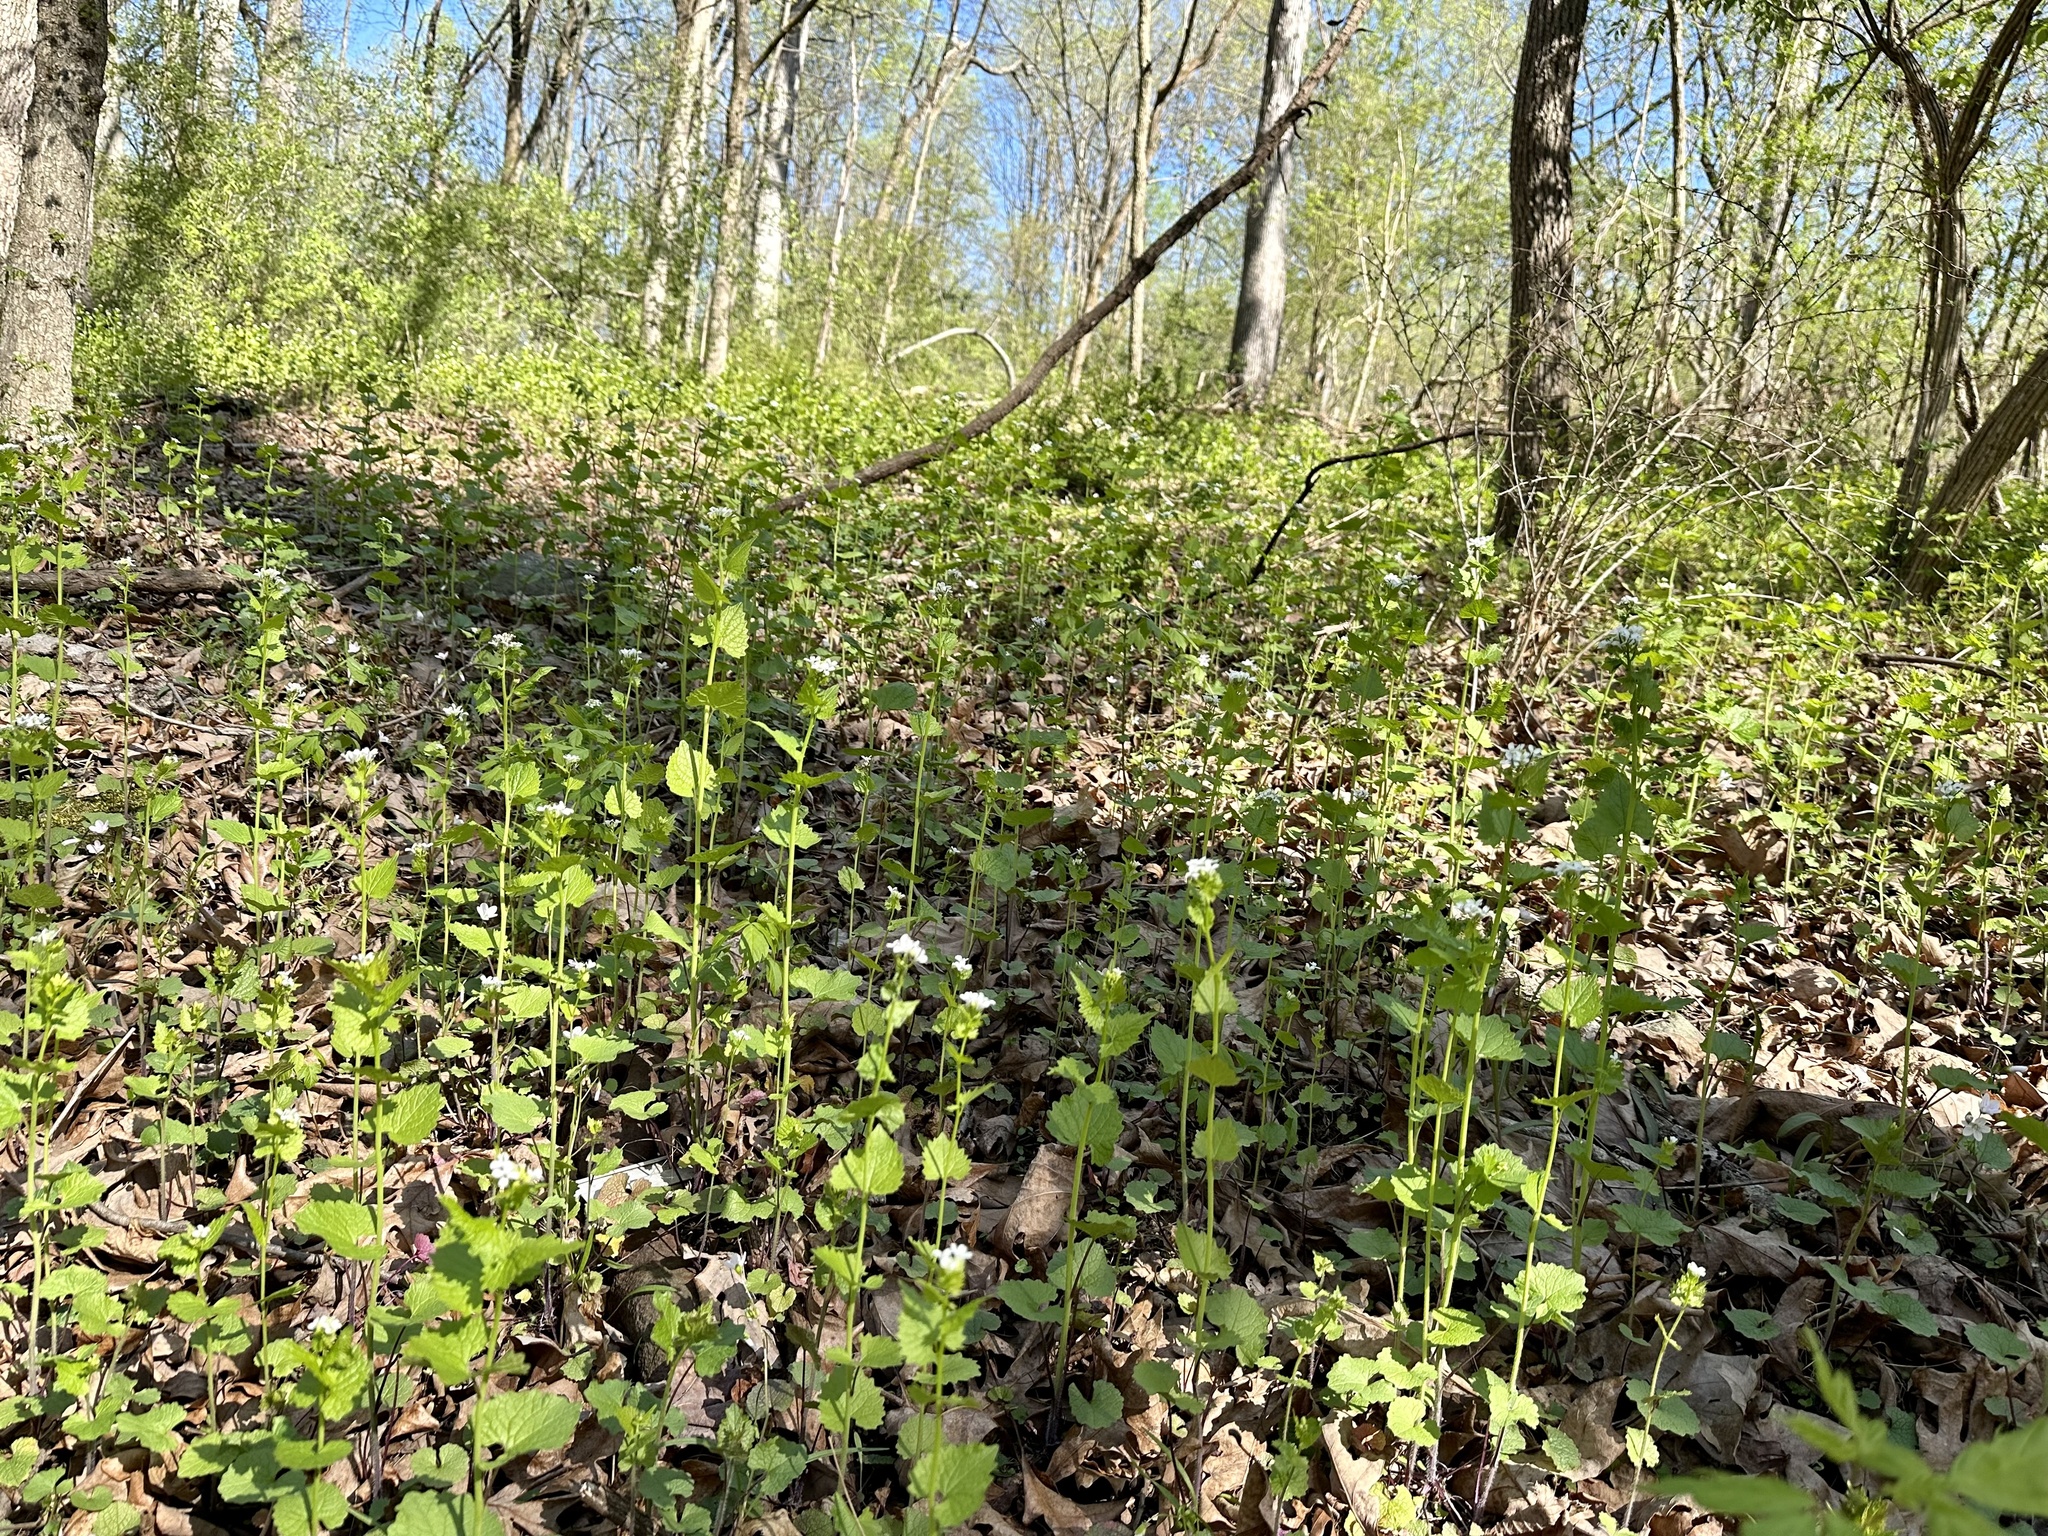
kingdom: Plantae
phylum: Tracheophyta
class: Magnoliopsida
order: Brassicales
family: Brassicaceae
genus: Alliaria
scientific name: Alliaria petiolata
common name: Garlic mustard
